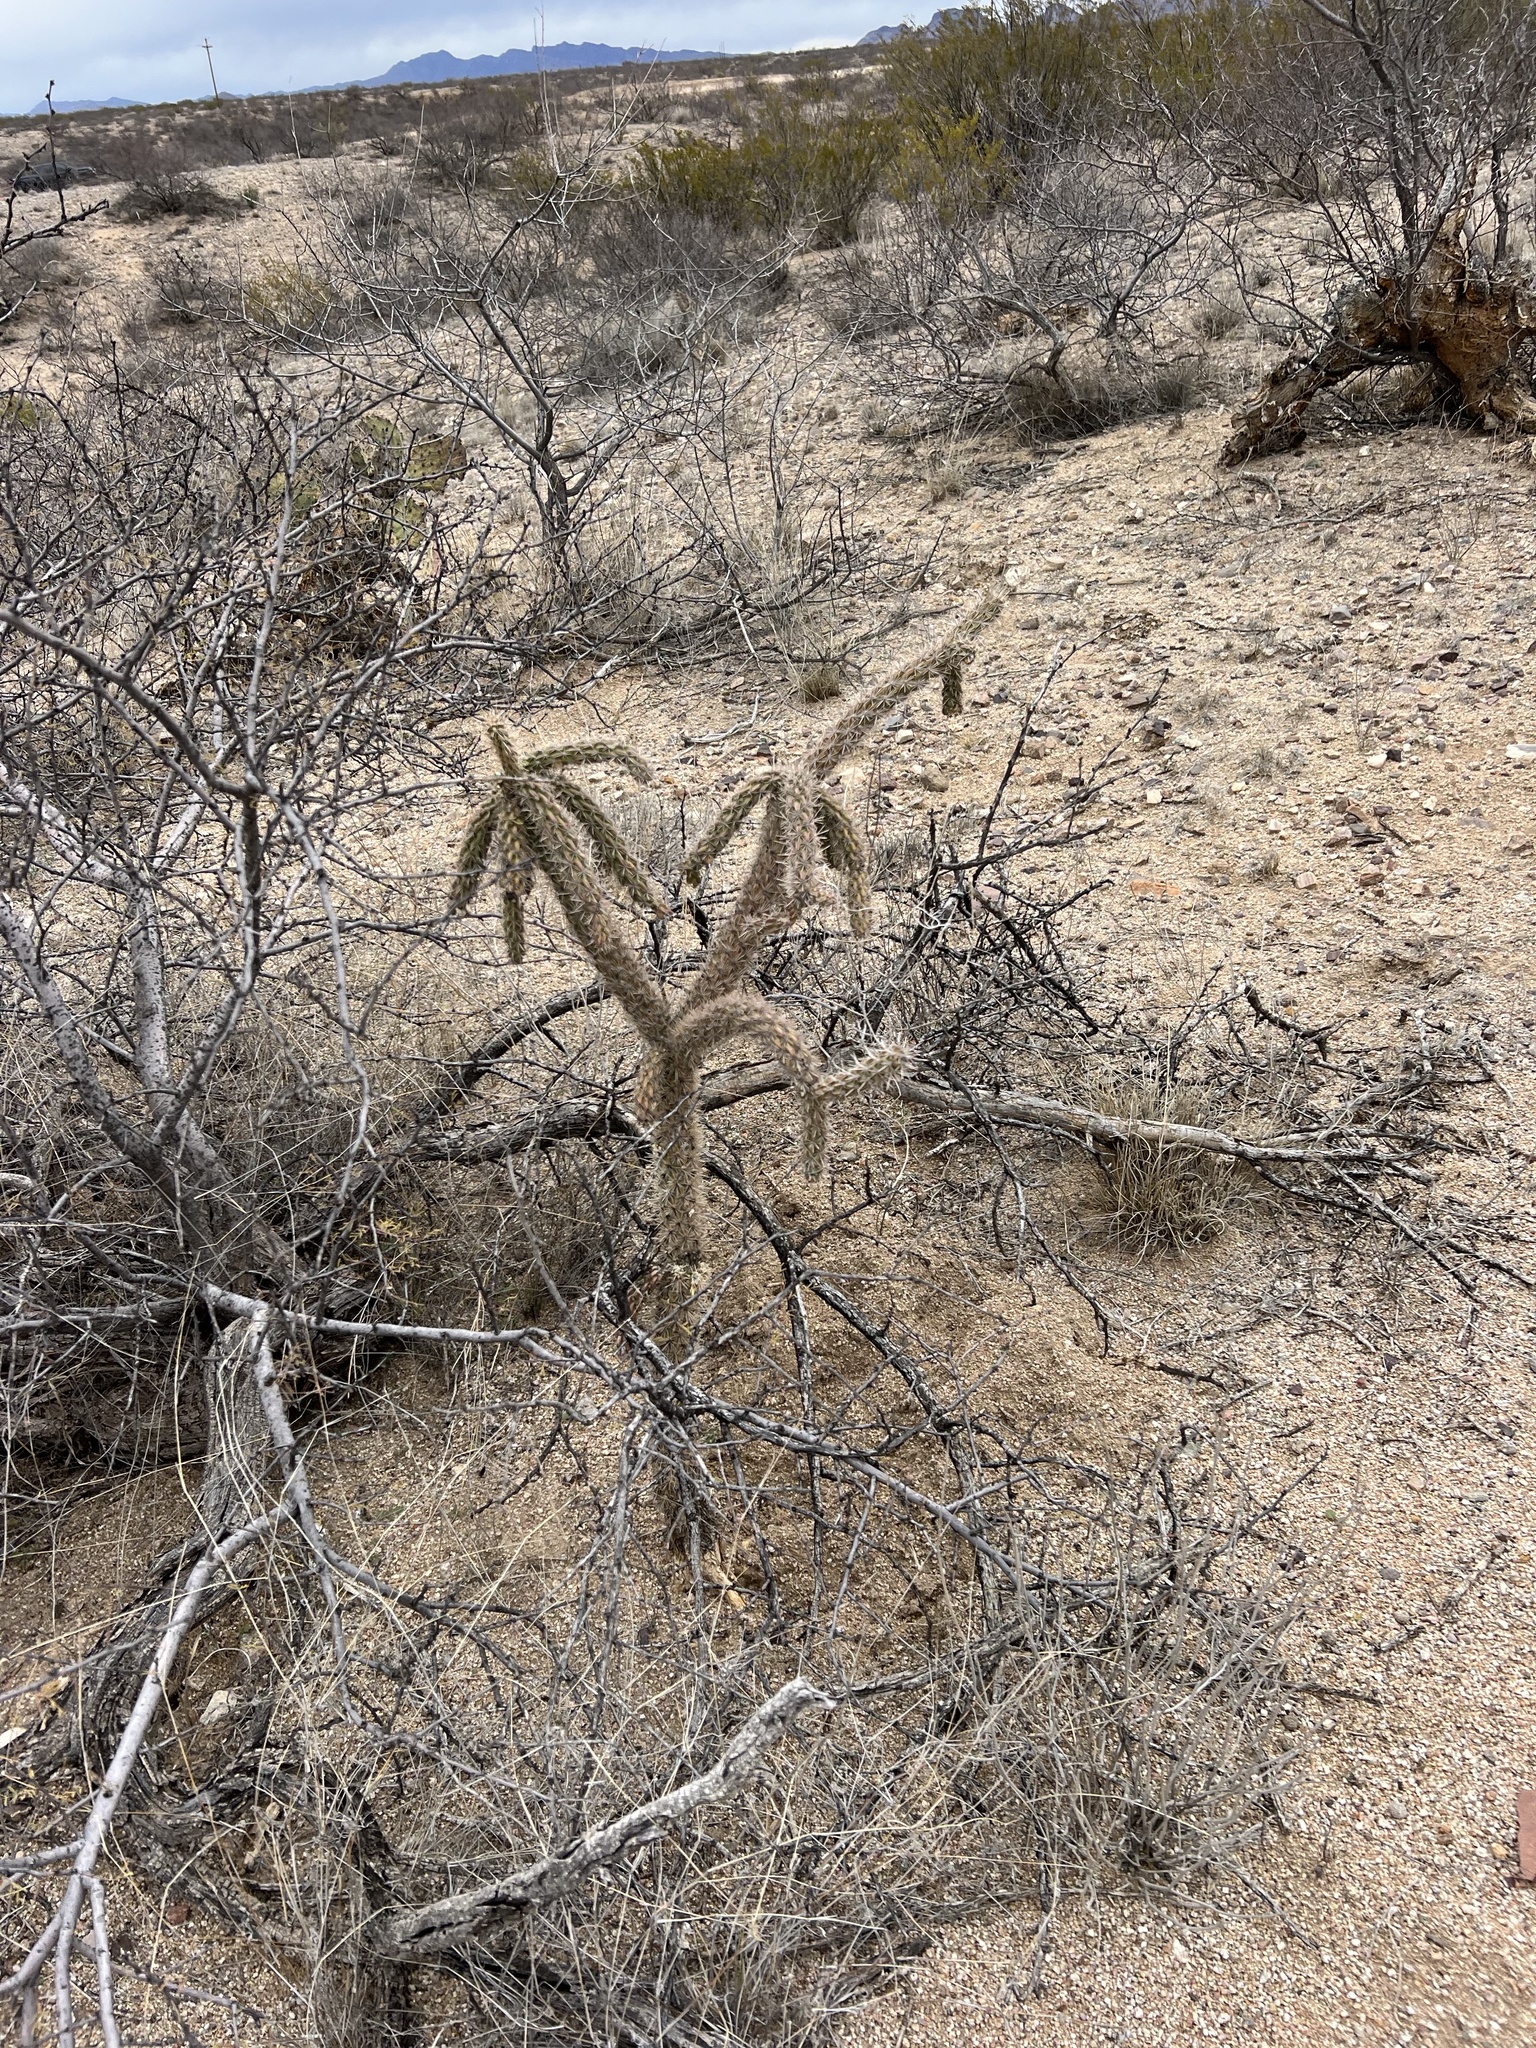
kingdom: Plantae
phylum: Tracheophyta
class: Magnoliopsida
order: Caryophyllales
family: Cactaceae
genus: Cylindropuntia
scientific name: Cylindropuntia imbricata
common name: Candelabrum cactus
